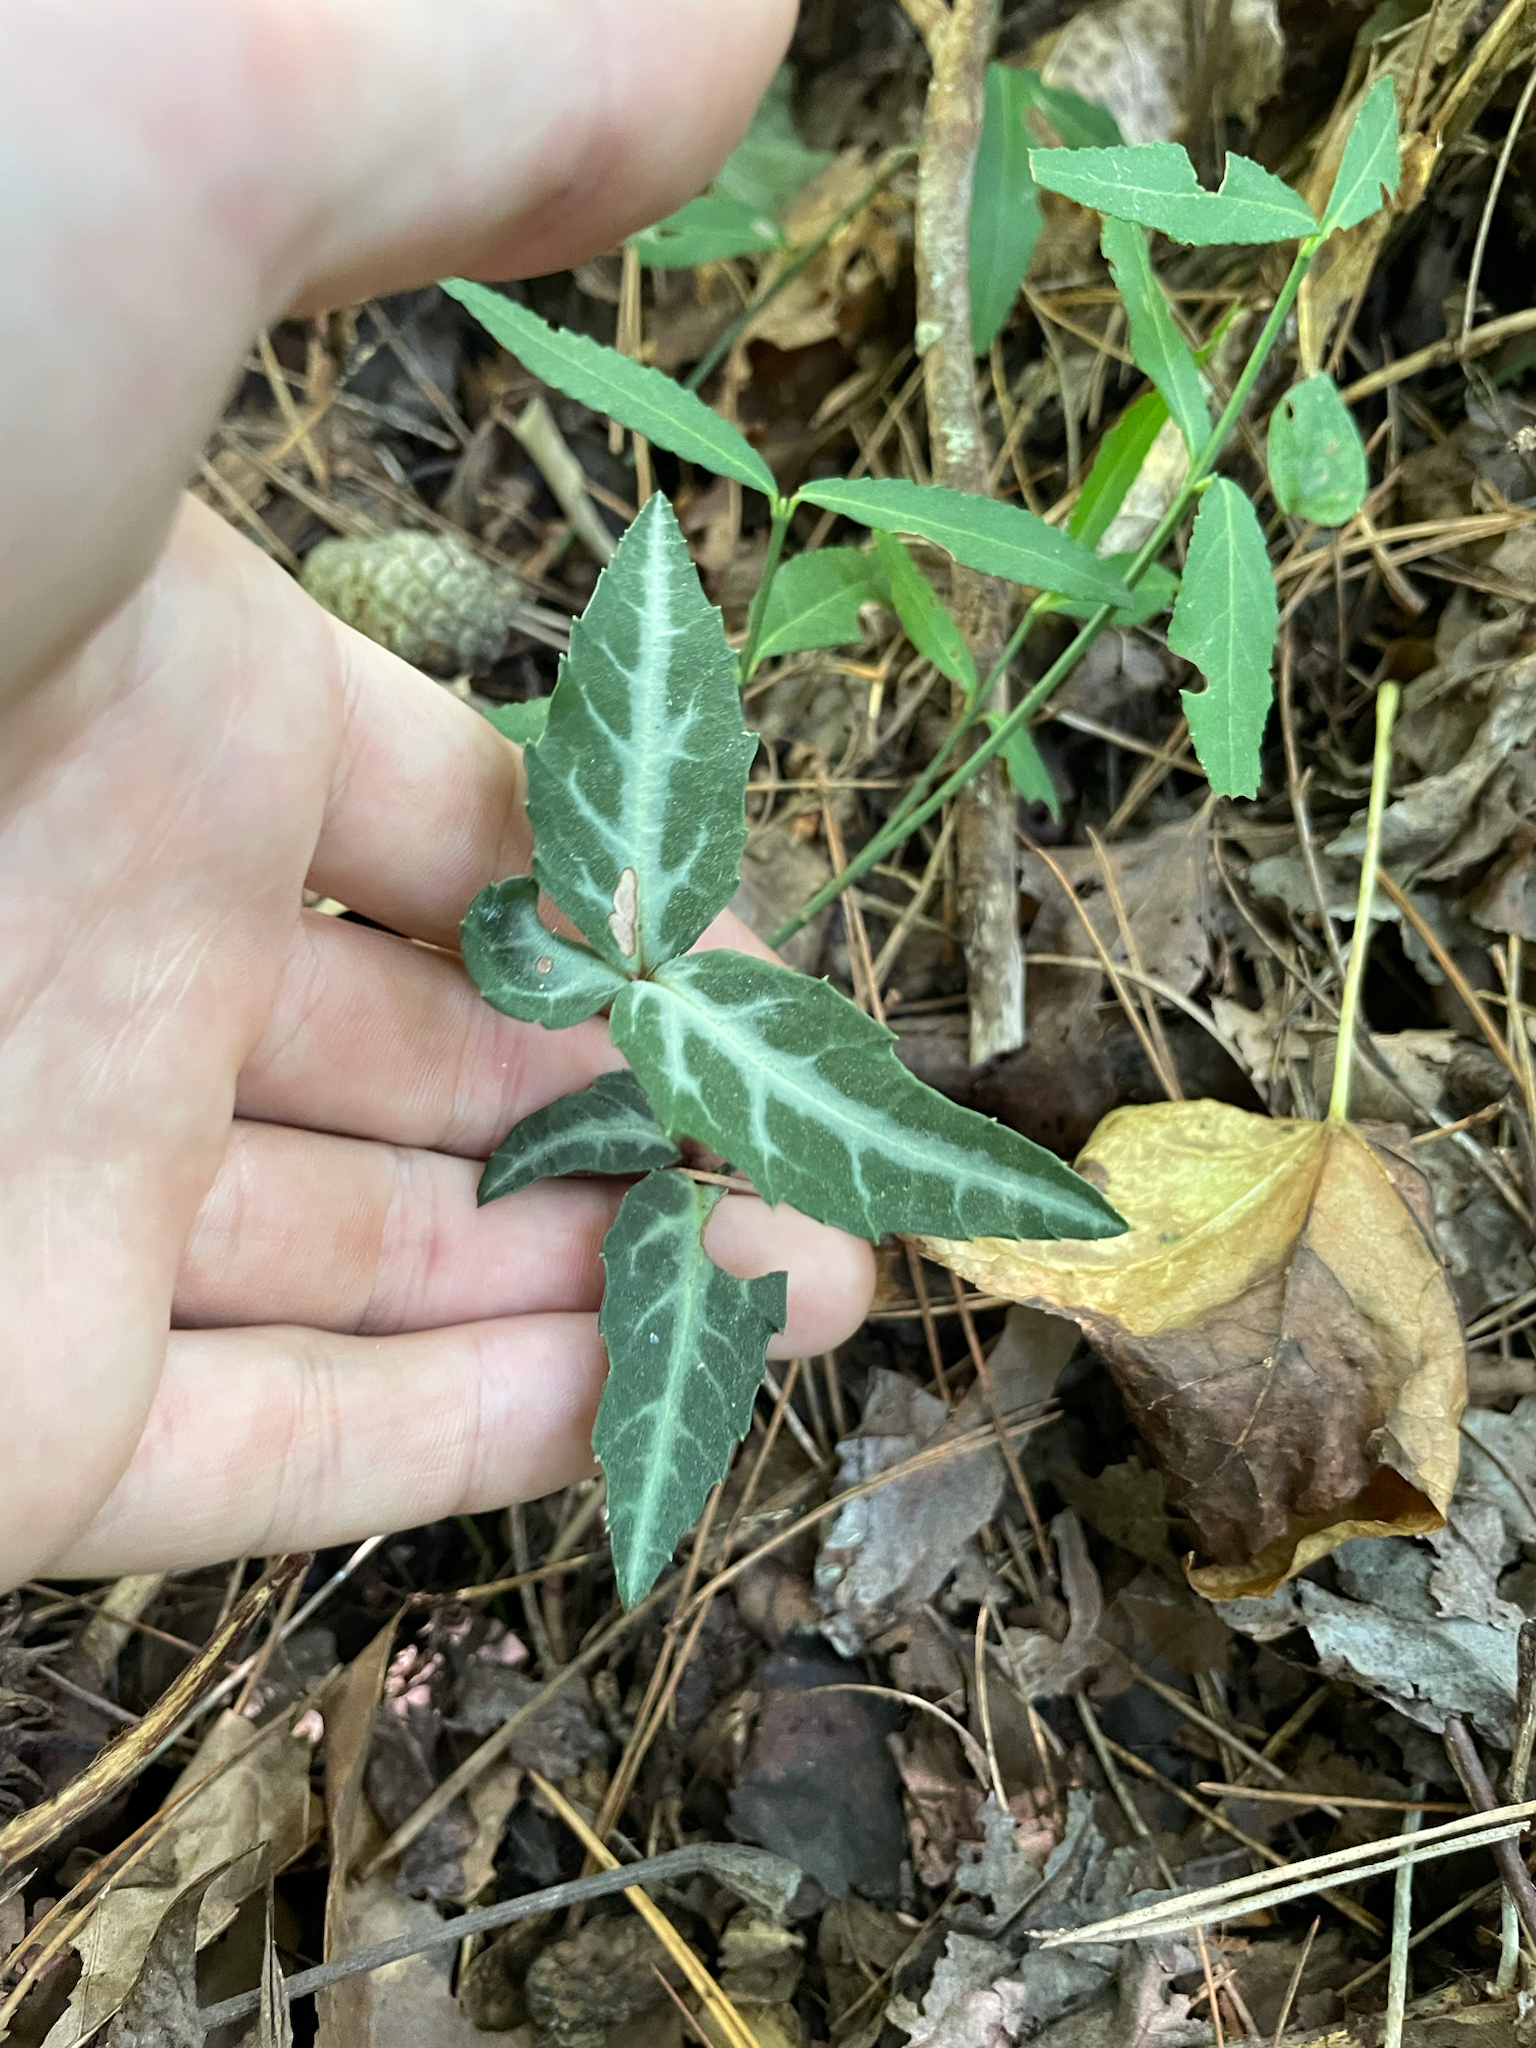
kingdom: Plantae
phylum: Tracheophyta
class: Magnoliopsida
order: Ericales
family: Ericaceae
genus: Chimaphila
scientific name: Chimaphila maculata
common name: Spotted pipsissewa
